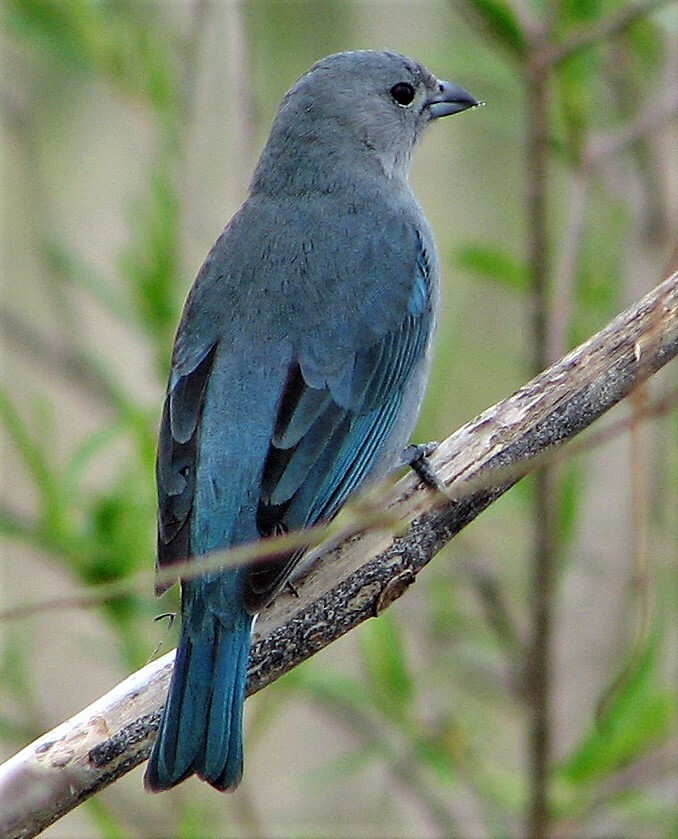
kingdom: Animalia
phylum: Chordata
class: Aves
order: Passeriformes
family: Thraupidae
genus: Thraupis
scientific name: Thraupis sayaca
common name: Sayaca tanager
